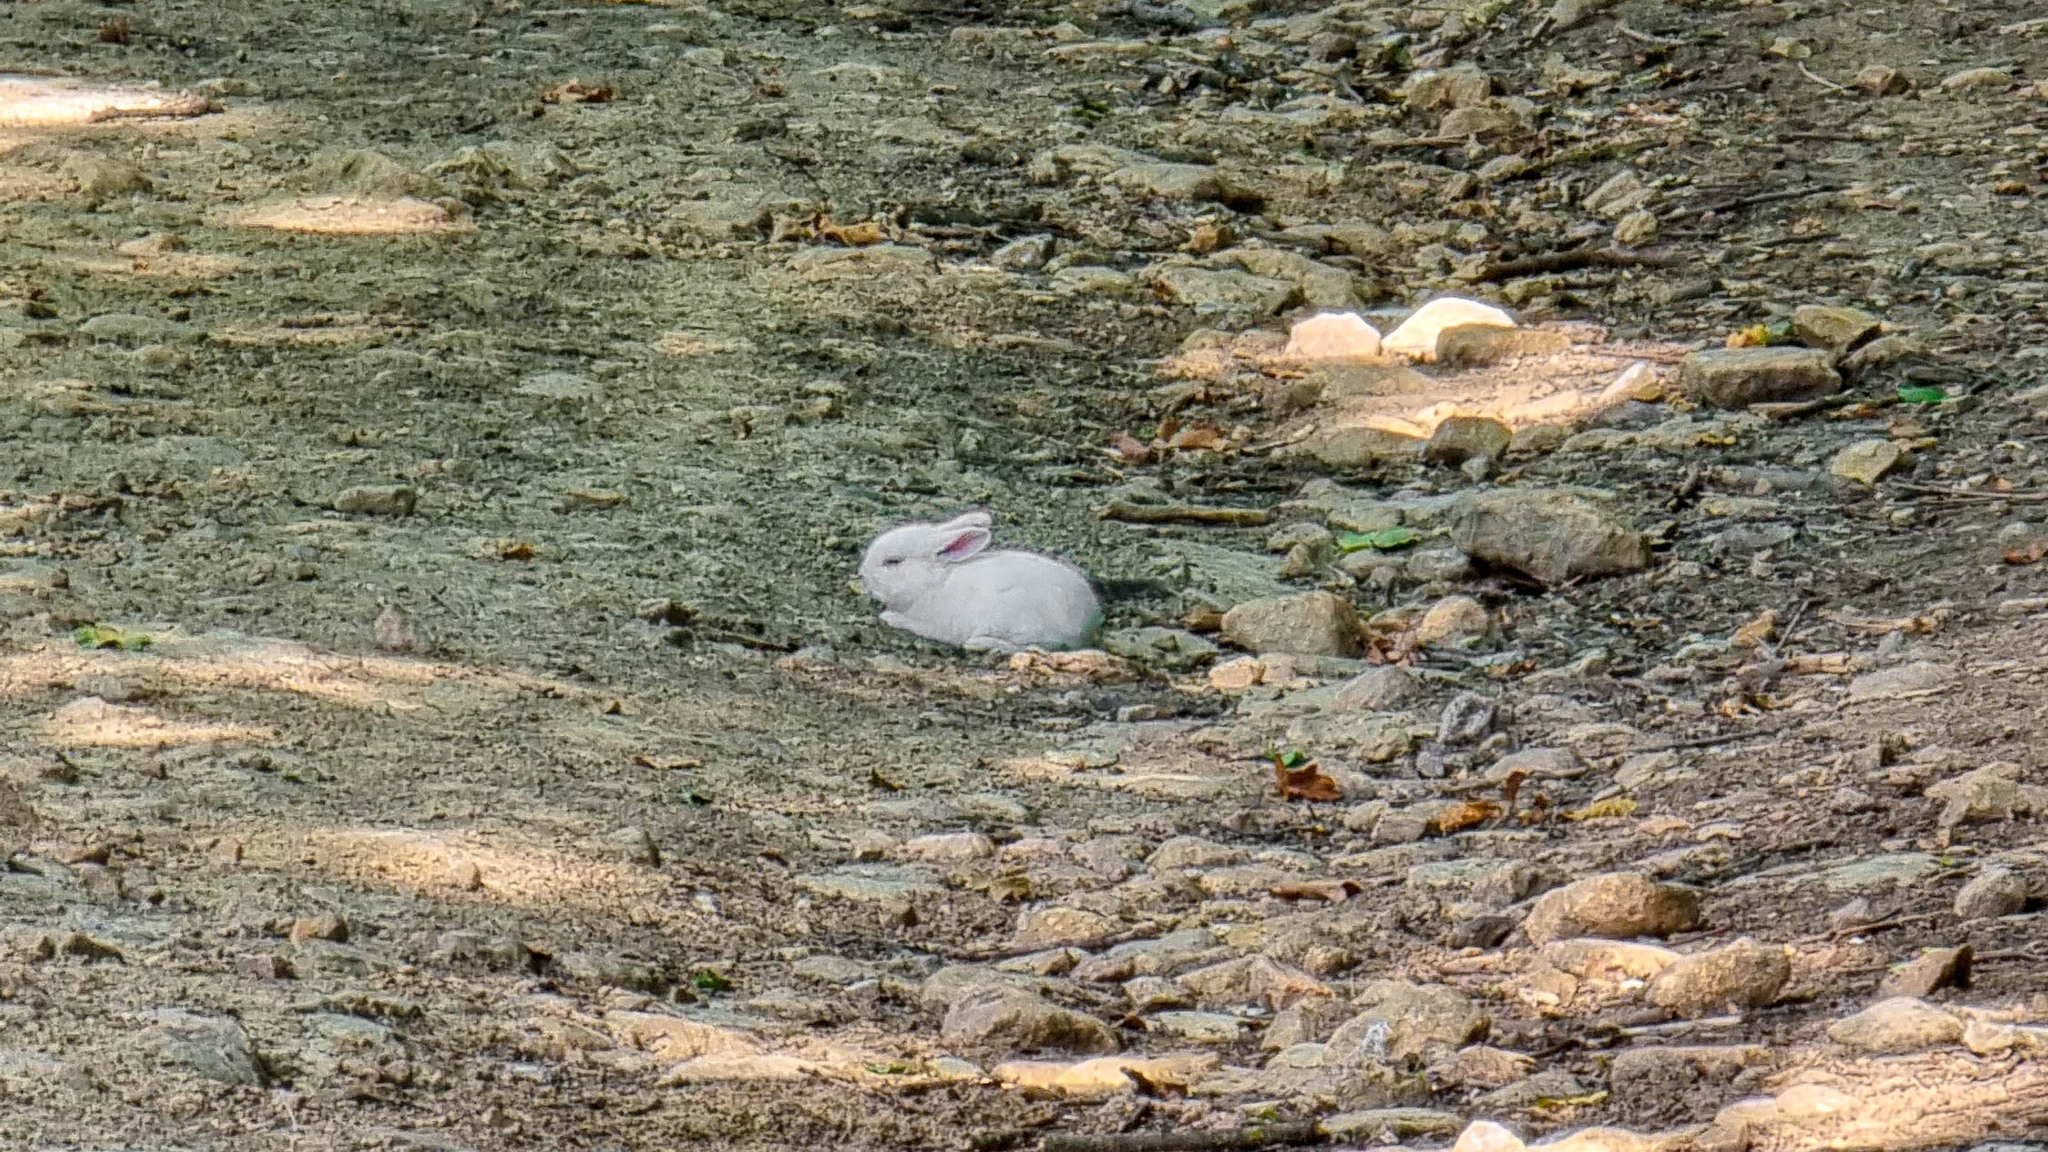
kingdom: Animalia
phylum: Chordata
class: Mammalia
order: Lagomorpha
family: Leporidae
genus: Oryctolagus
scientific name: Oryctolagus cuniculus
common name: European rabbit
